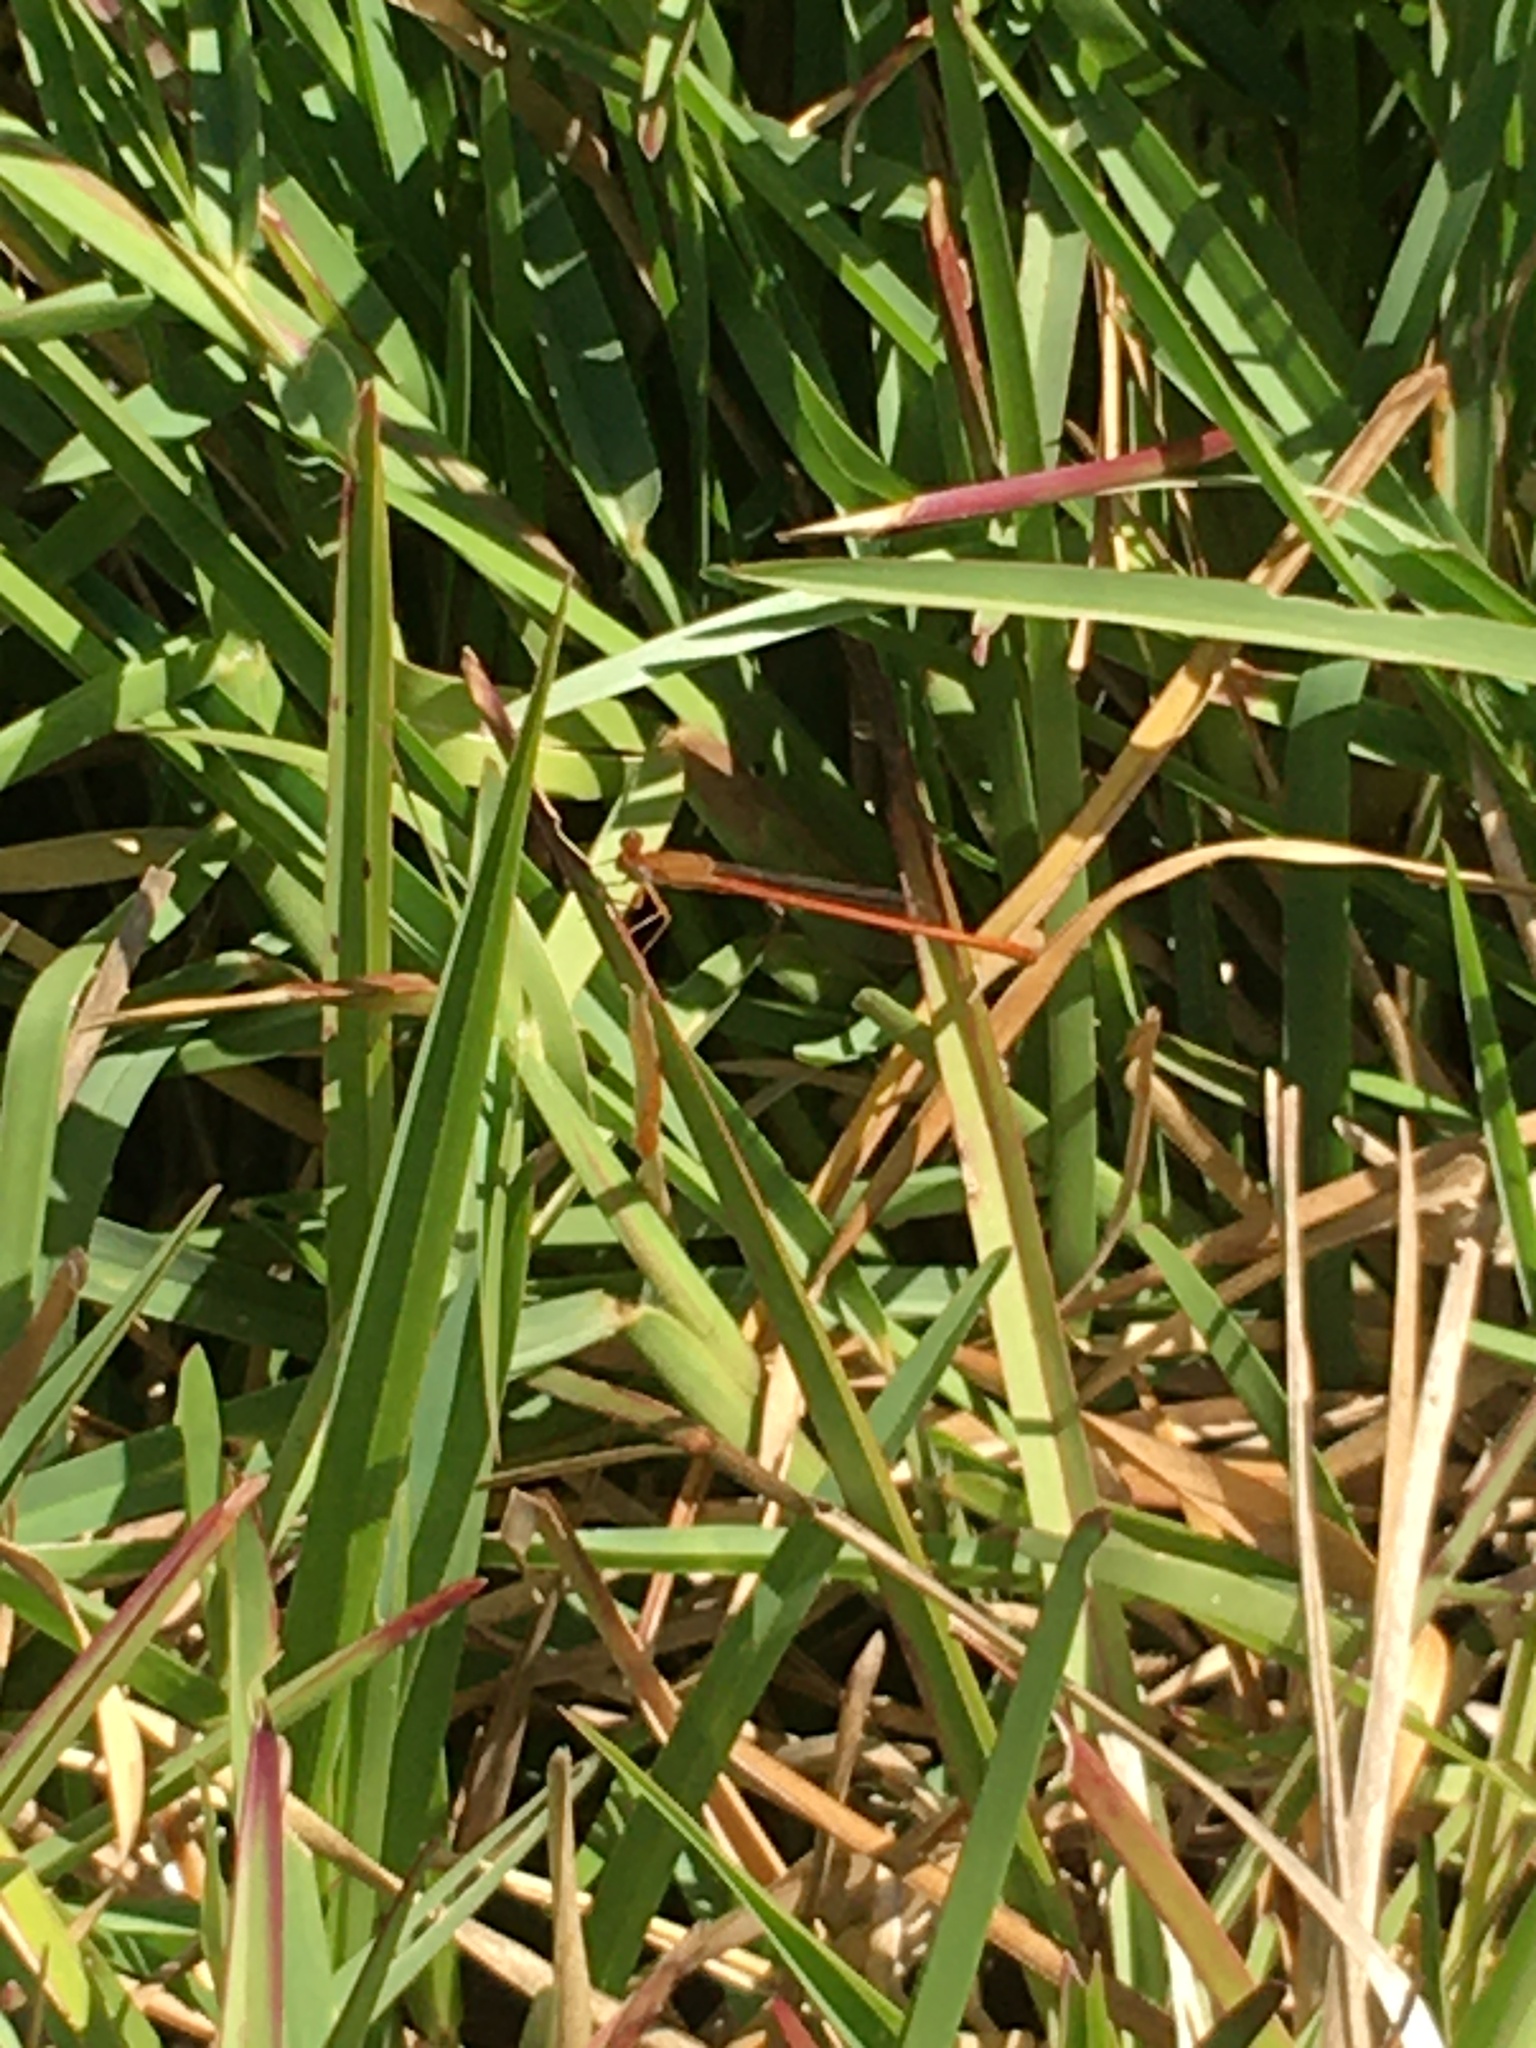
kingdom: Animalia
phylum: Arthropoda
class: Insecta
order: Odonata
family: Coenagrionidae
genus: Ceriagrion
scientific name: Ceriagrion glabrum
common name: Common pond damsel
